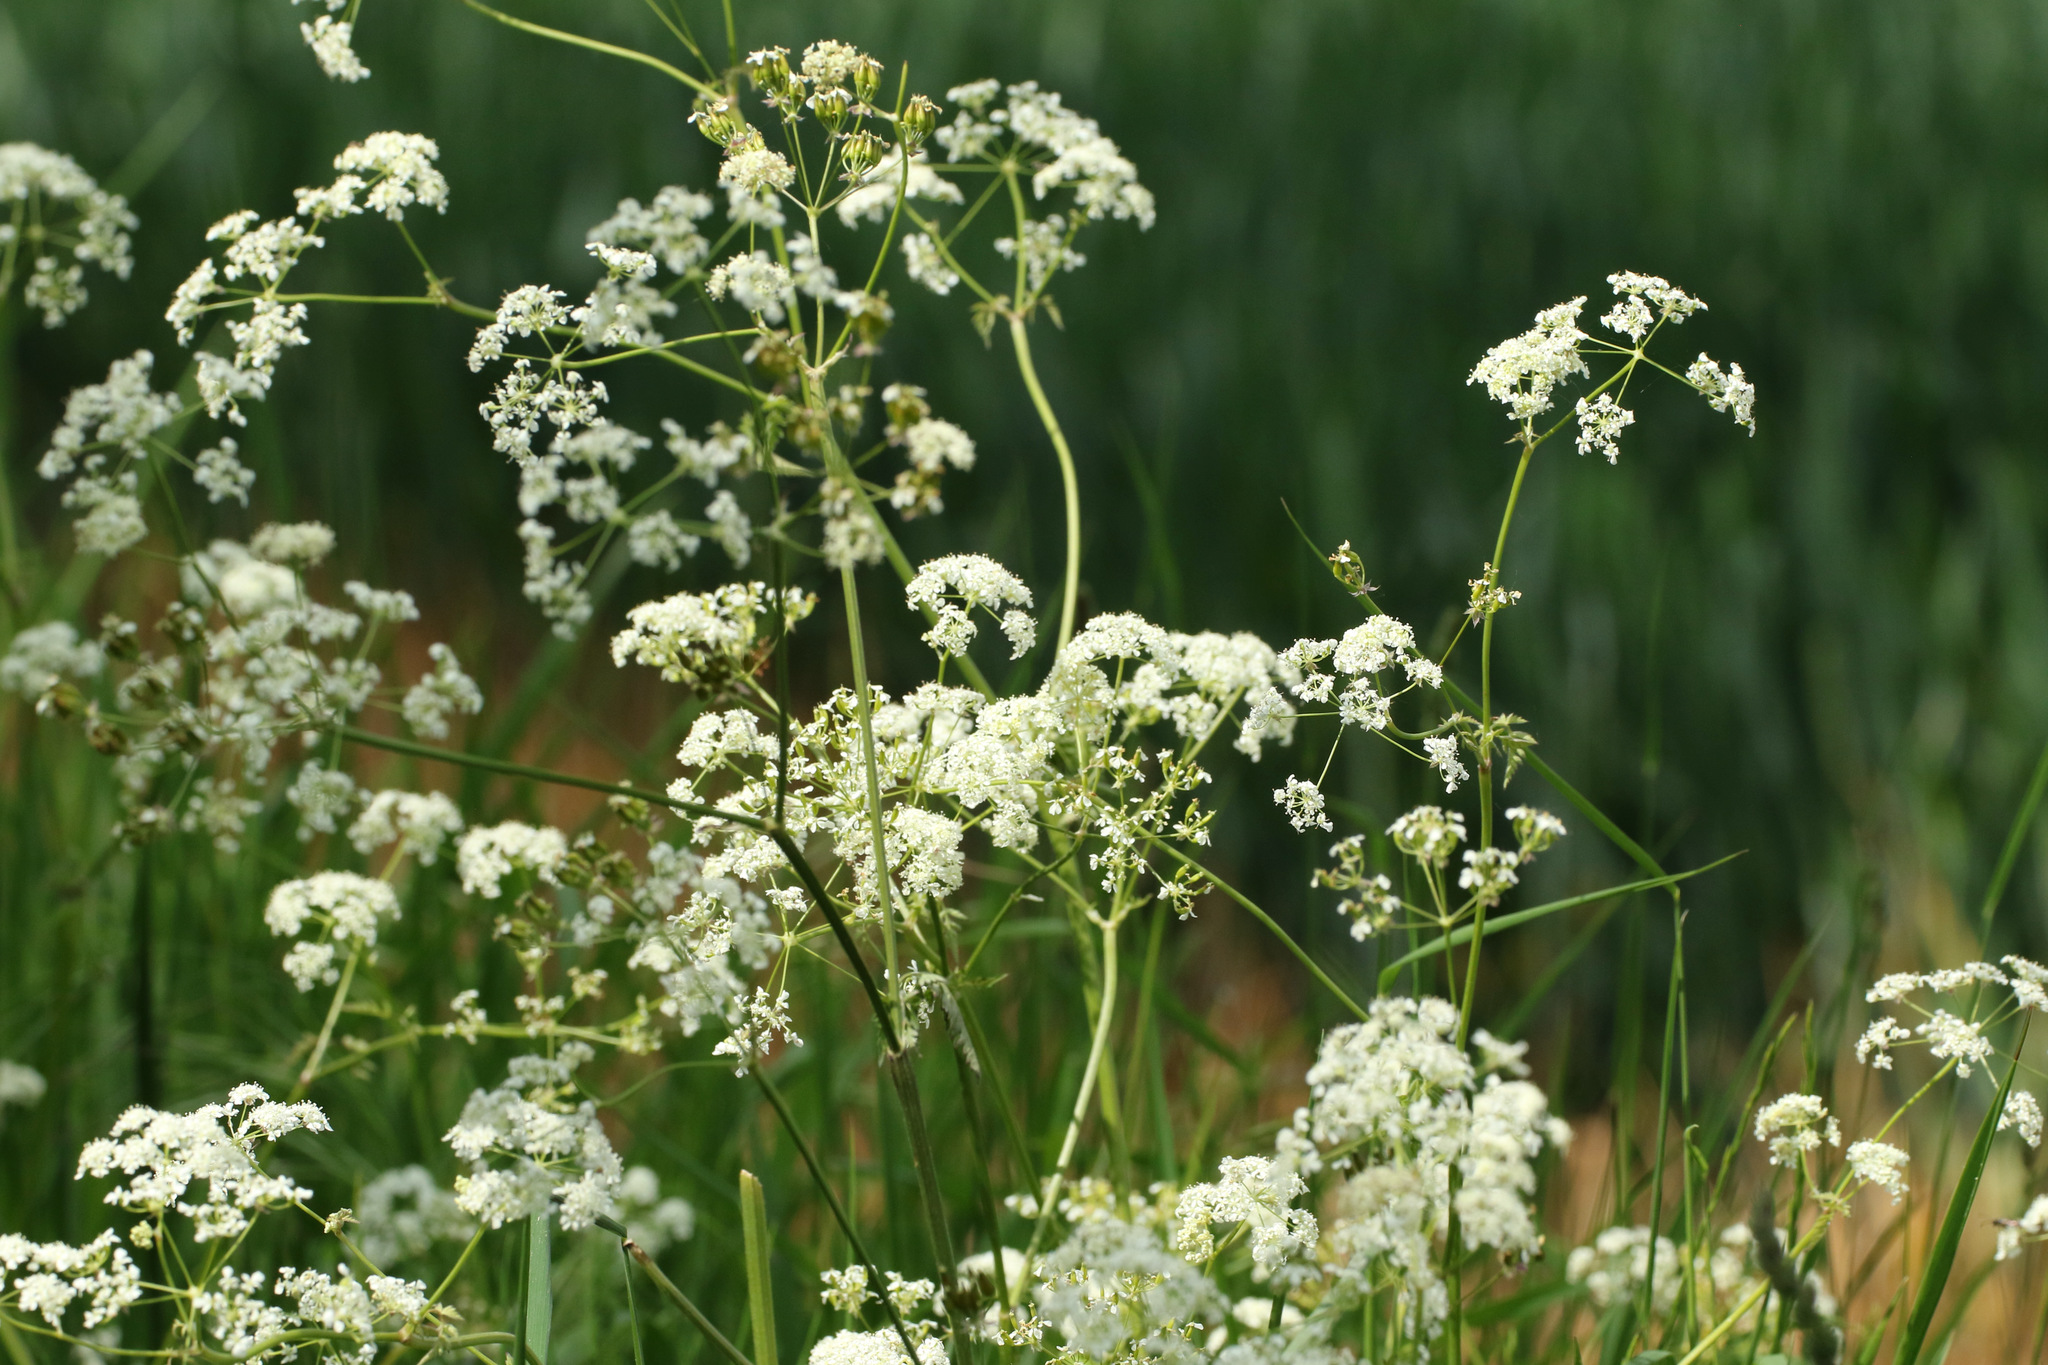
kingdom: Plantae
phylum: Tracheophyta
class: Magnoliopsida
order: Apiales
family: Apiaceae
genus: Anthriscus
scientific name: Anthriscus sylvestris
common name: Cow parsley
